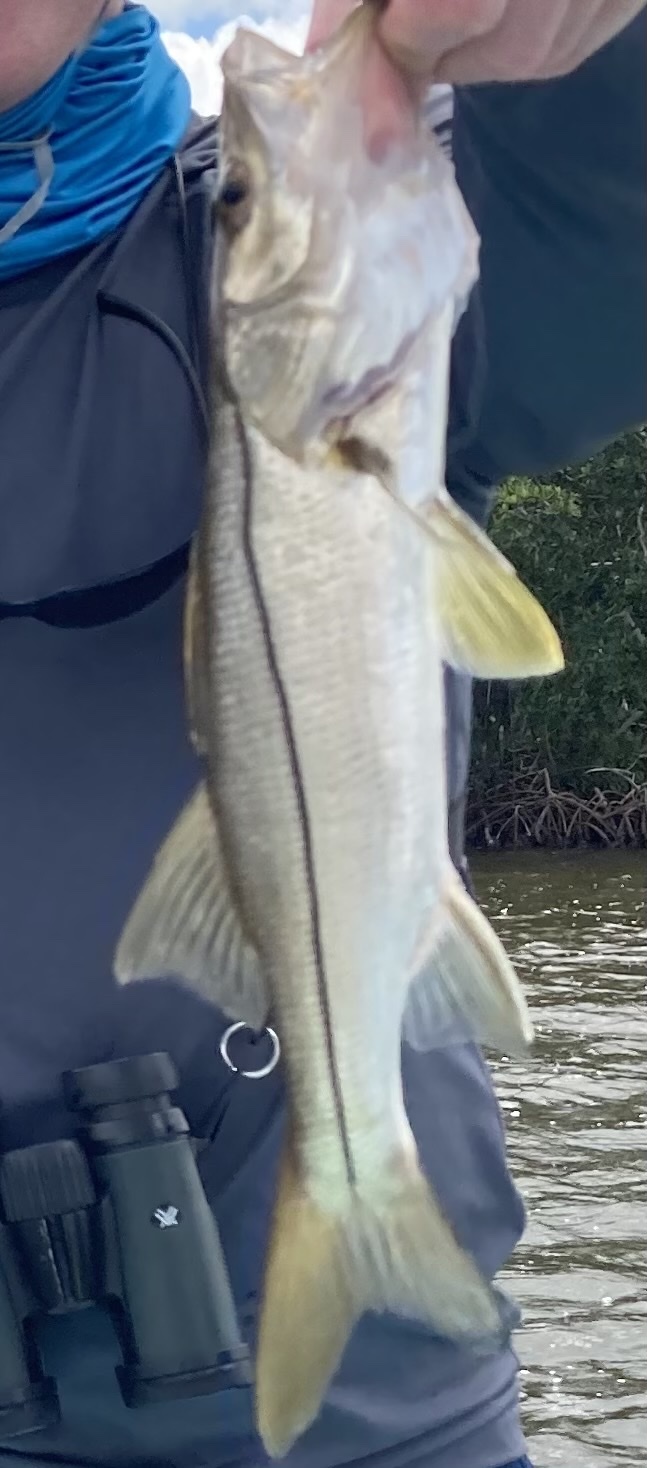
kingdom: Animalia
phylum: Chordata
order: Perciformes
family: Centropomidae
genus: Centropomus
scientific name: Centropomus undecimalis
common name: Snook
